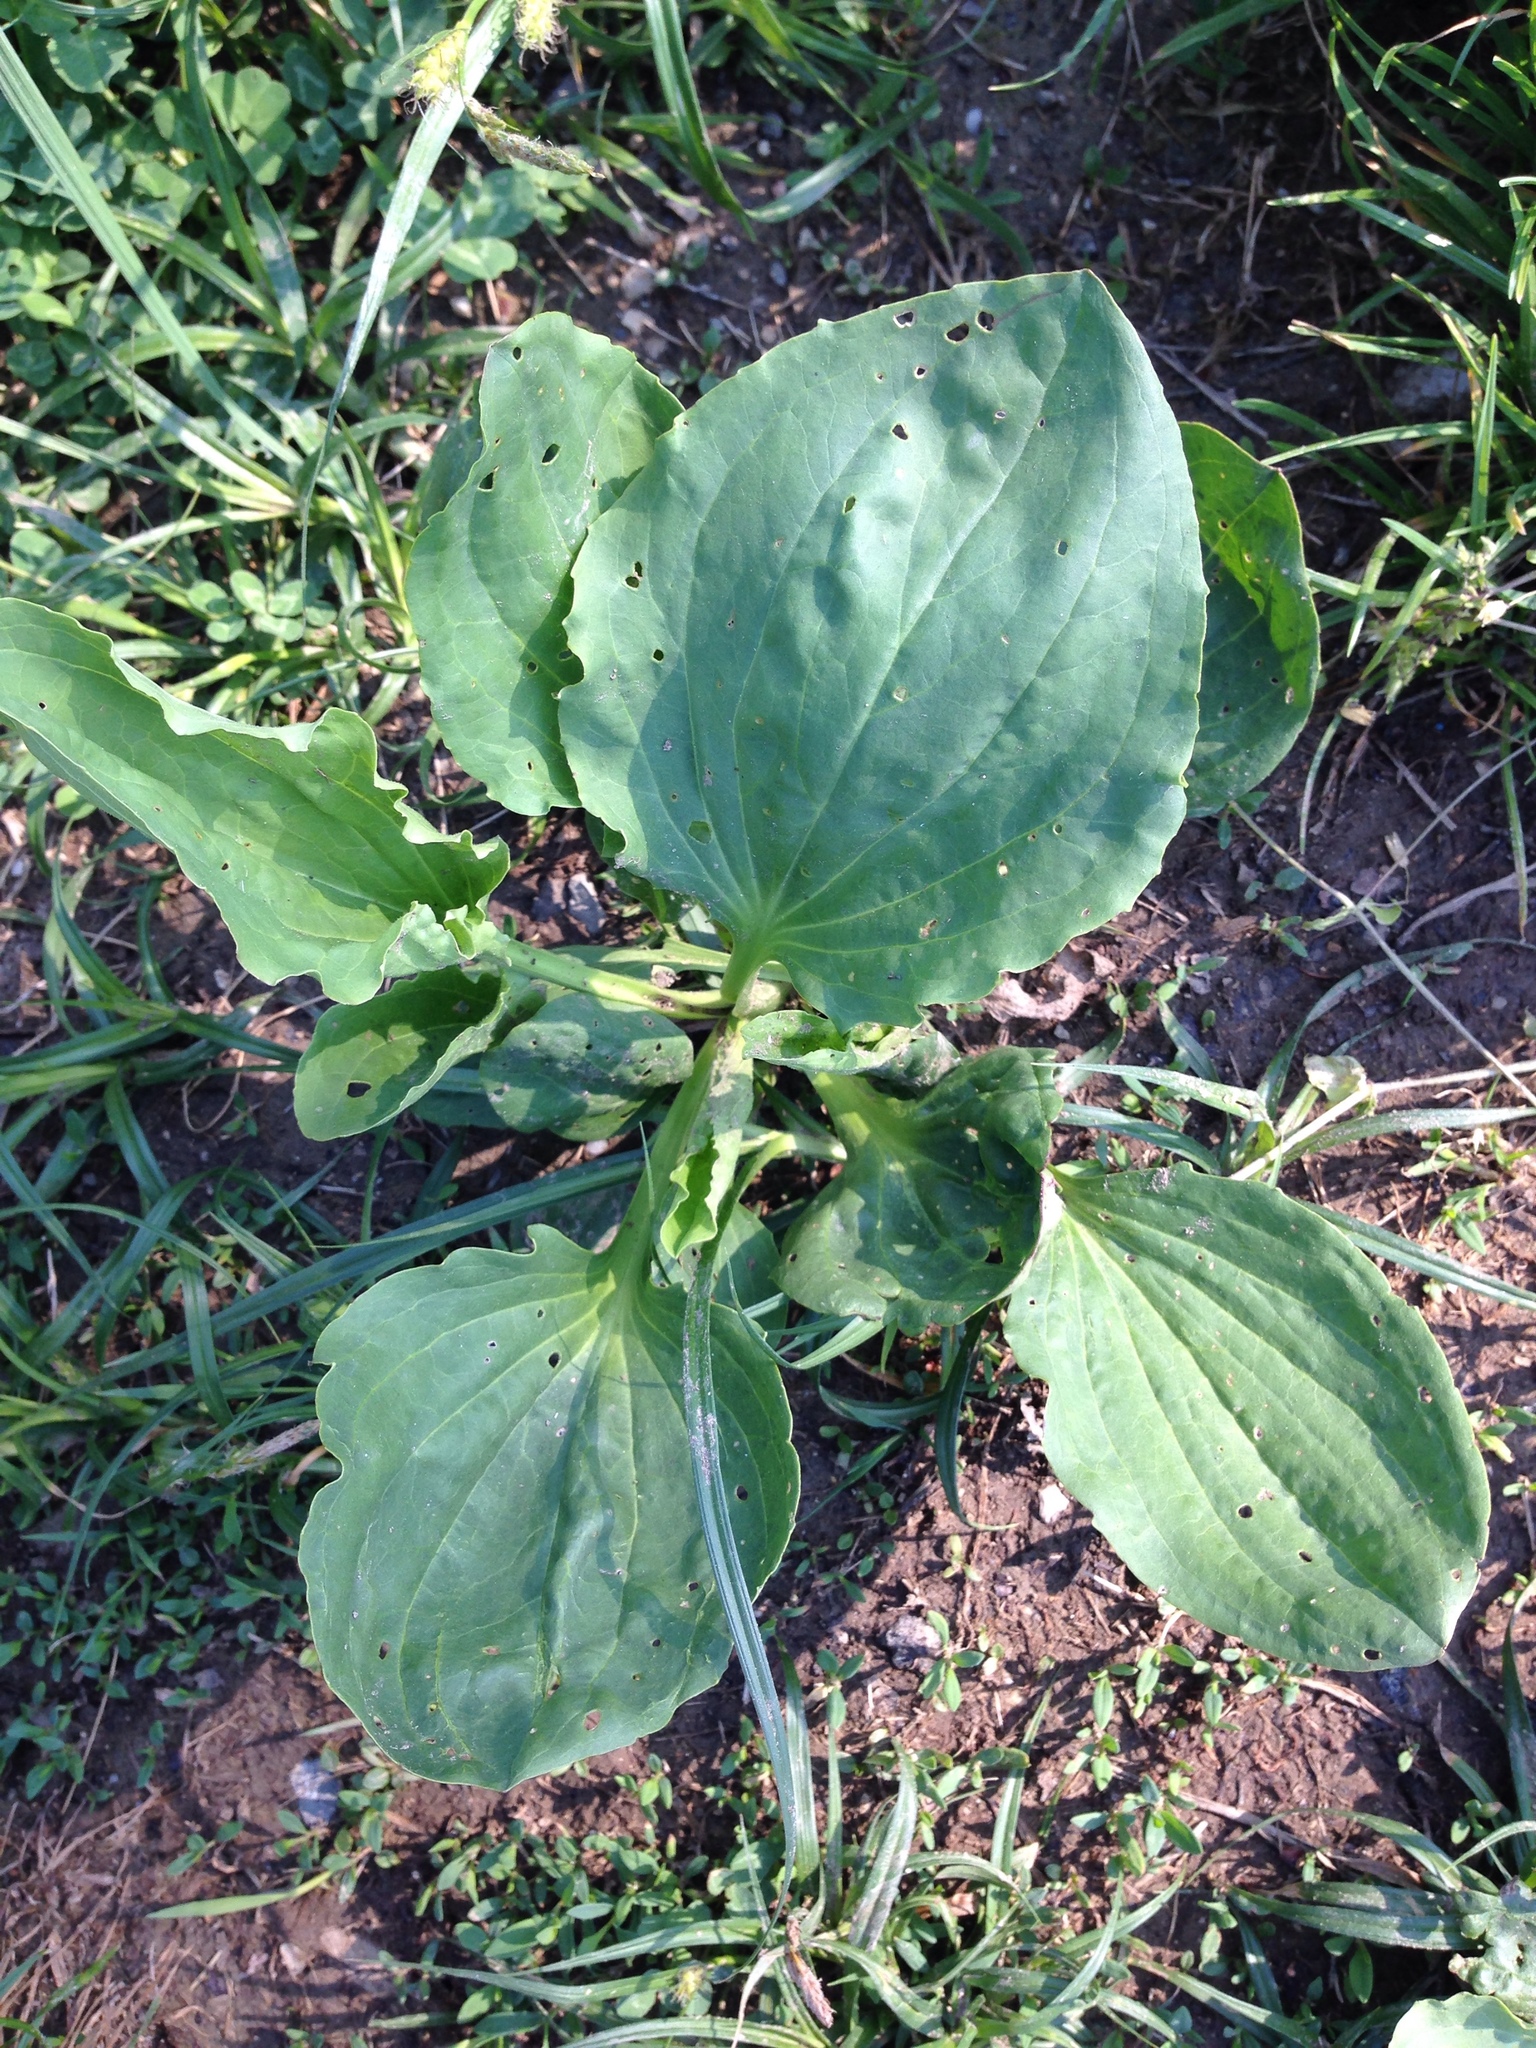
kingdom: Plantae
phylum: Tracheophyta
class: Magnoliopsida
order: Lamiales
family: Plantaginaceae
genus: Plantago
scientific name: Plantago major
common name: Common plantain
